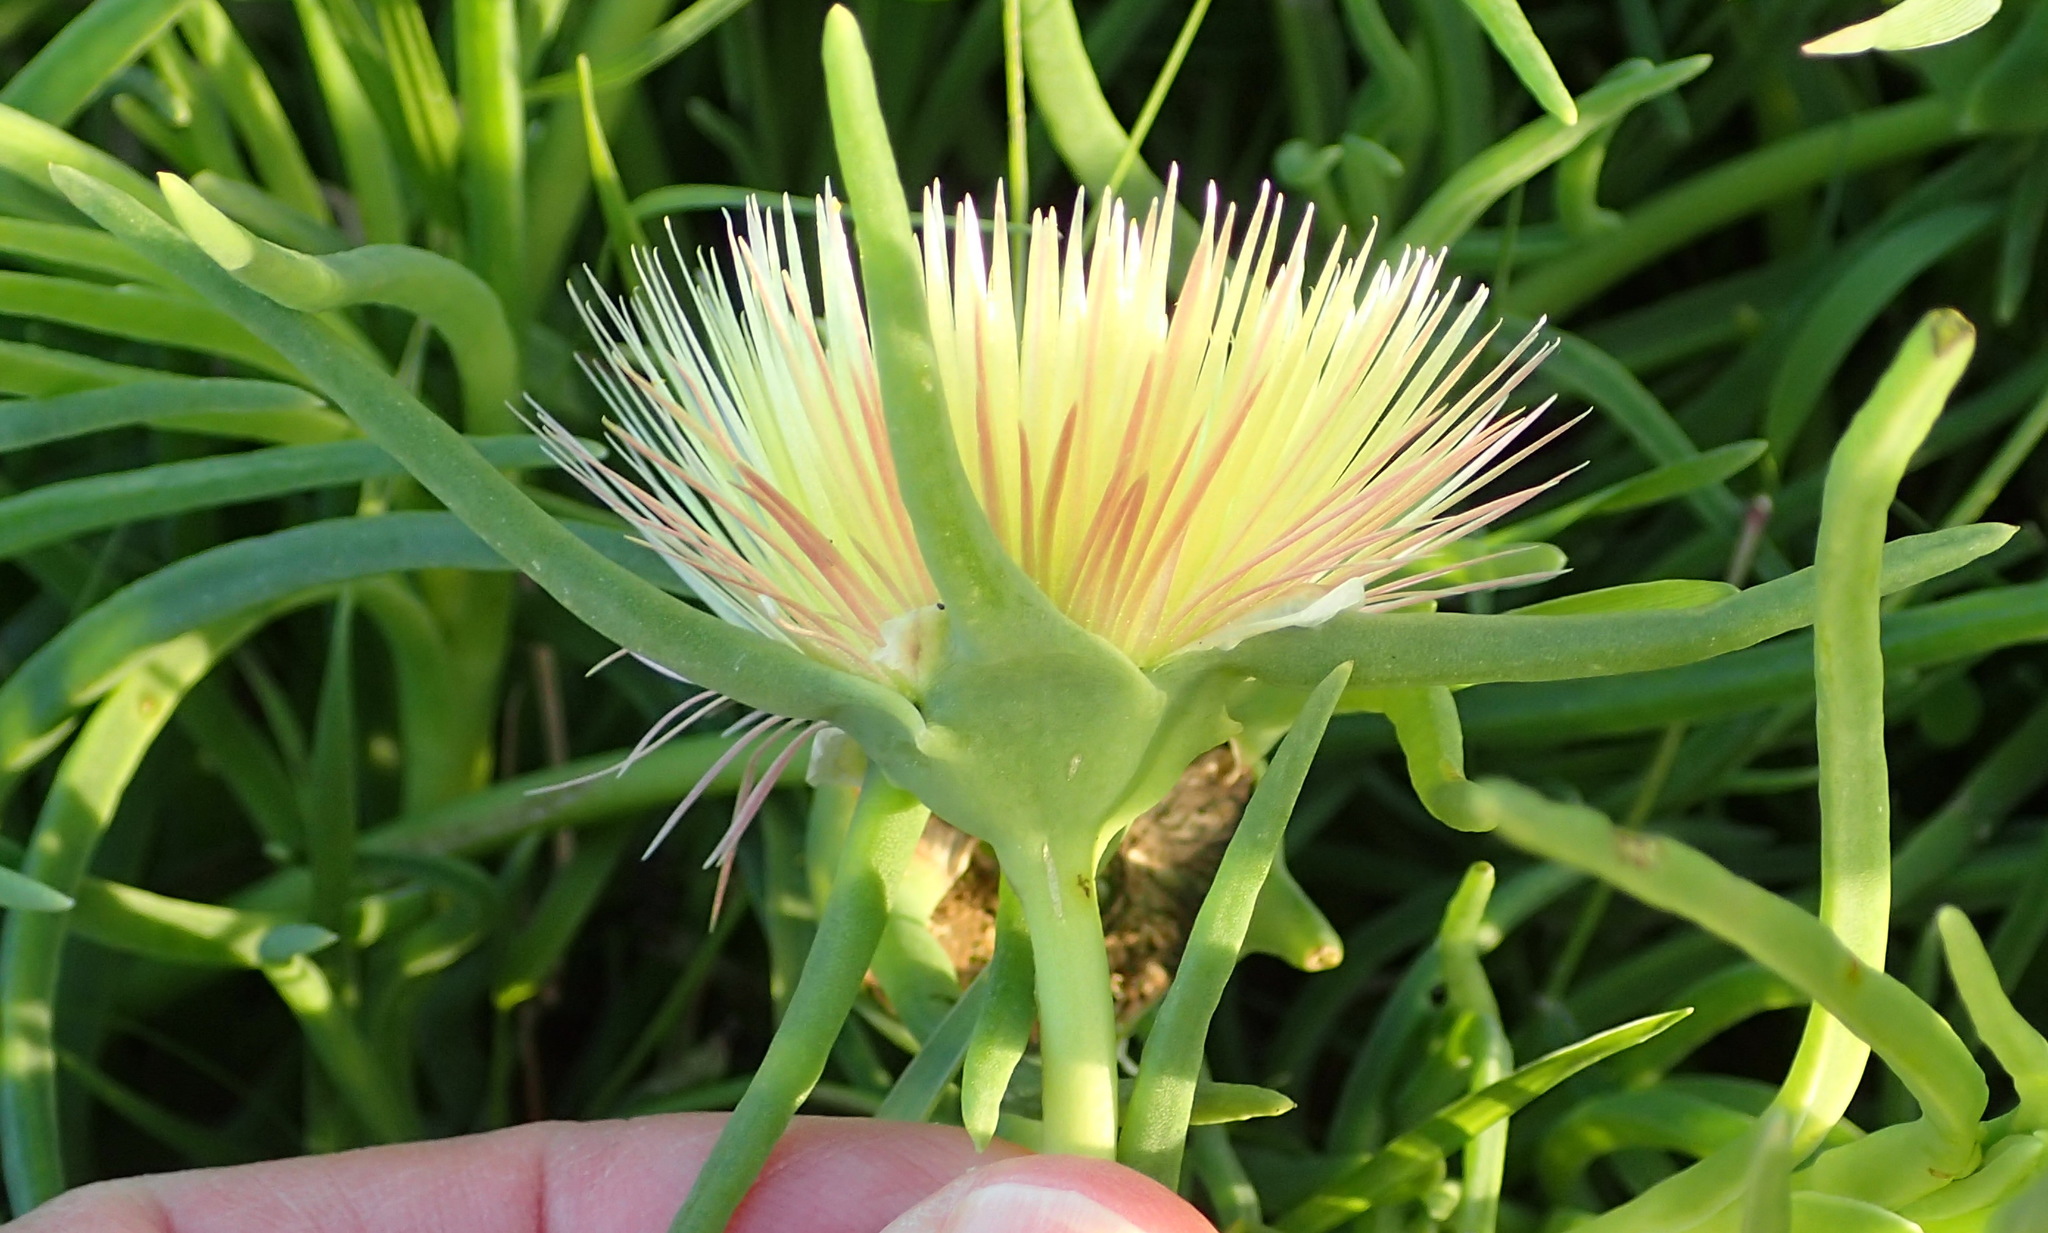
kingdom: Plantae
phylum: Tracheophyta
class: Magnoliopsida
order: Caryophyllales
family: Aizoaceae
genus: Conicosia
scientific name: Conicosia pugioniformis
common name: Narrow-leaved iceplant
